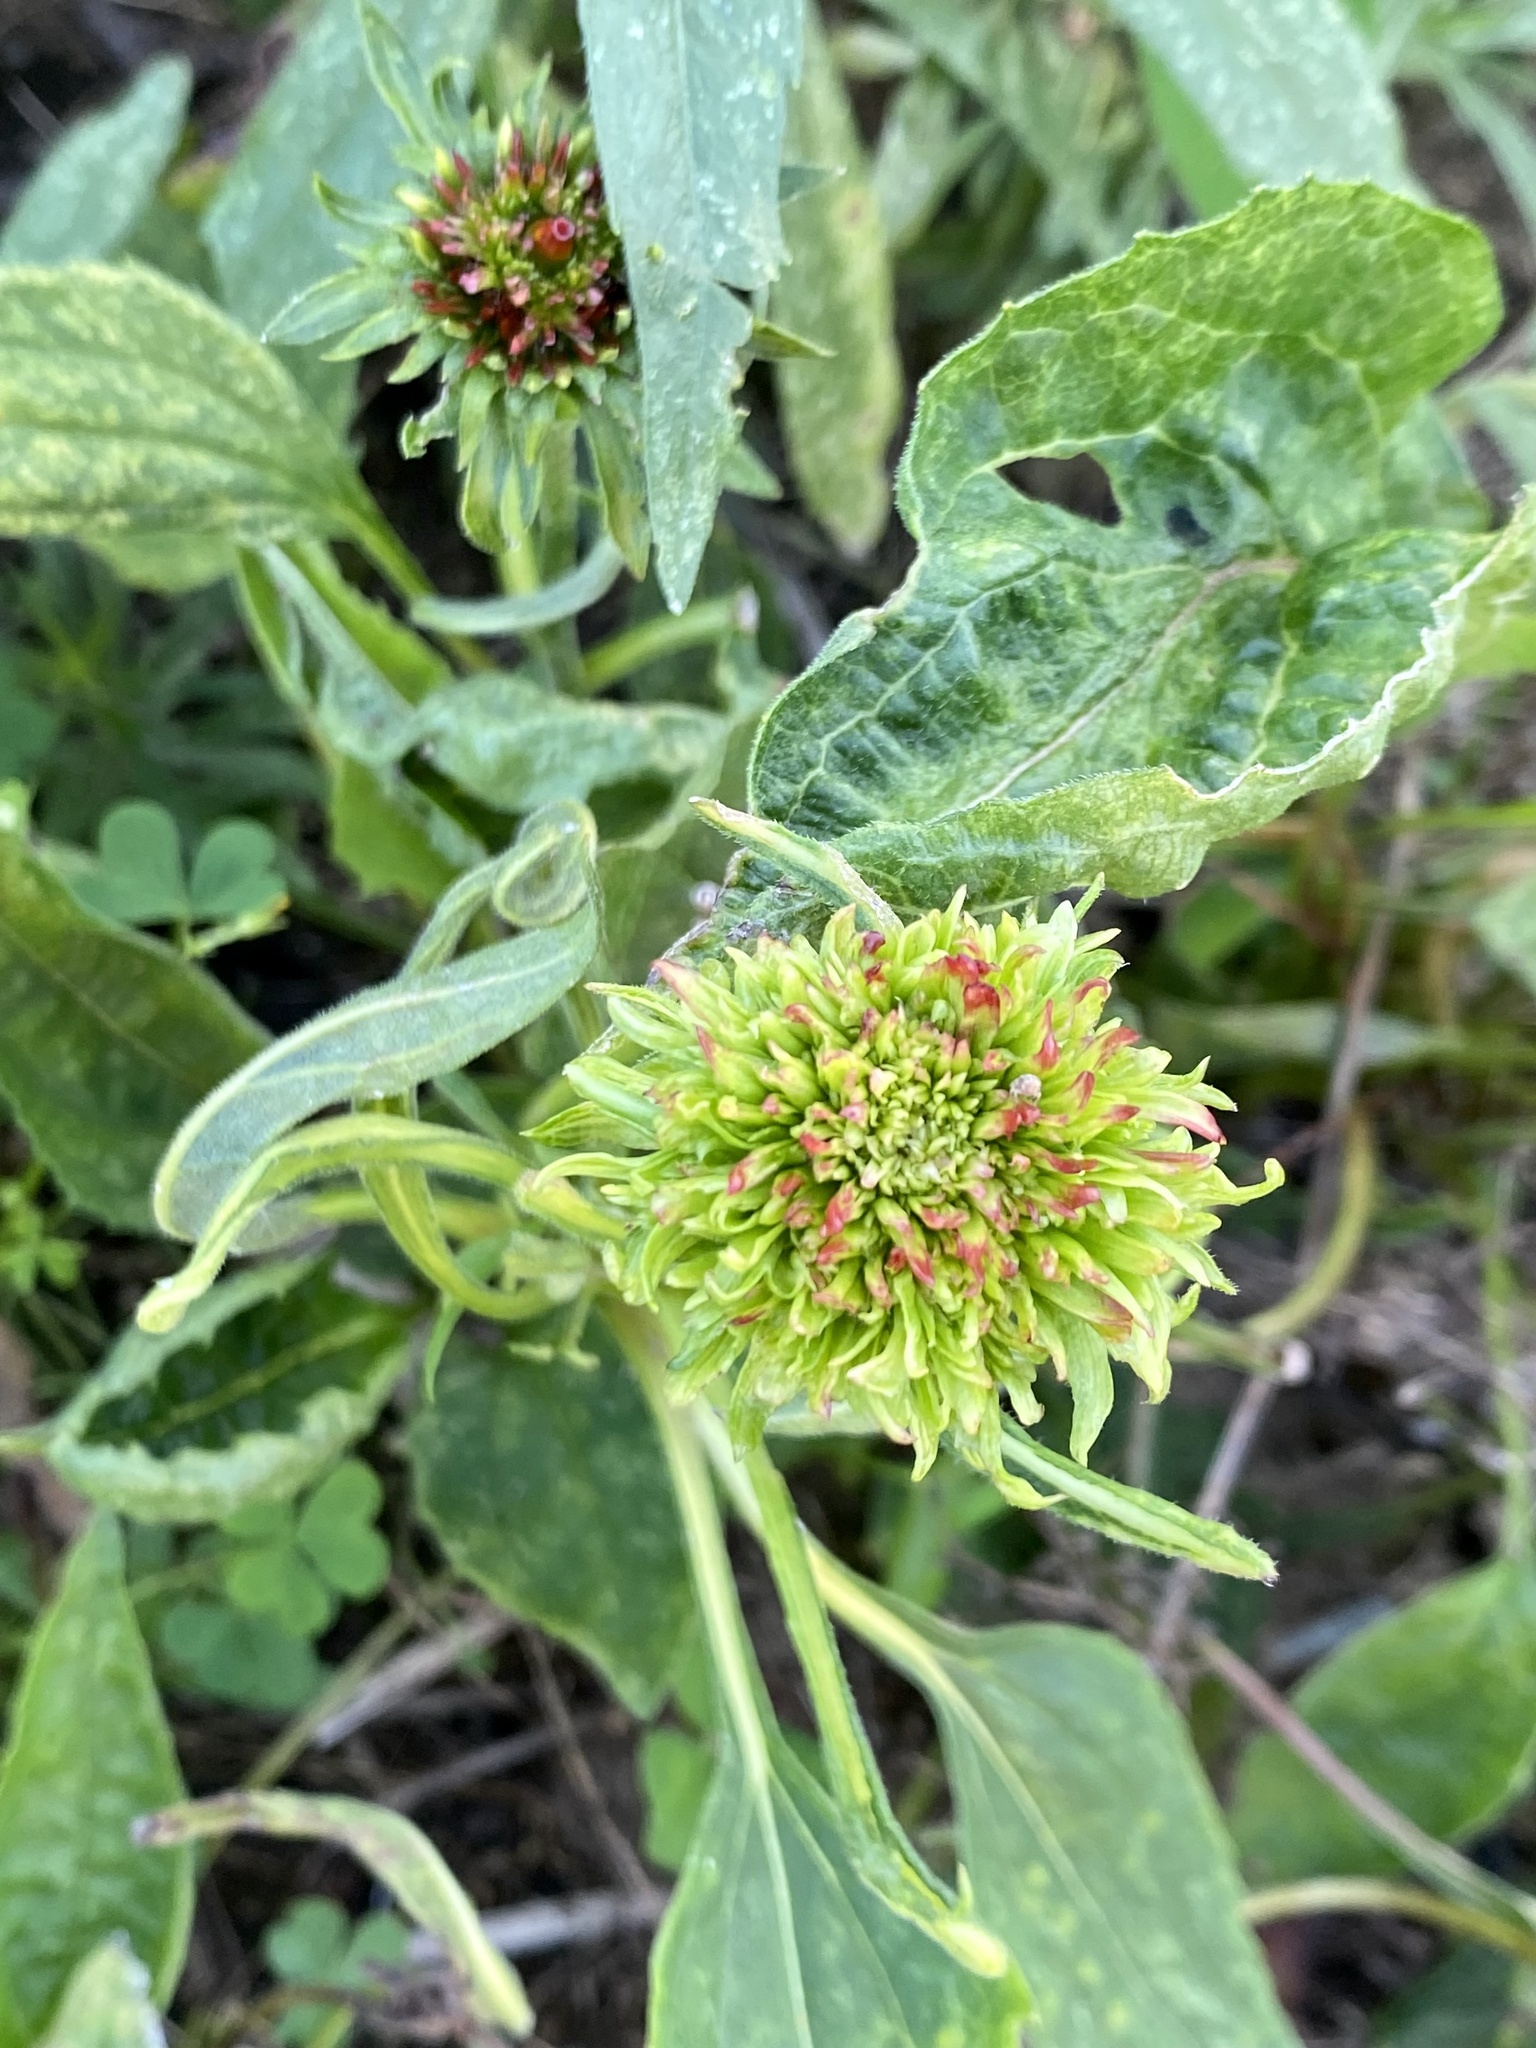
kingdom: Bacteria
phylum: Firmicutes
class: Bacilli
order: Acholeplasmatales
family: Acholeplasmataceae
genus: Phytoplasma
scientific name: Phytoplasma
